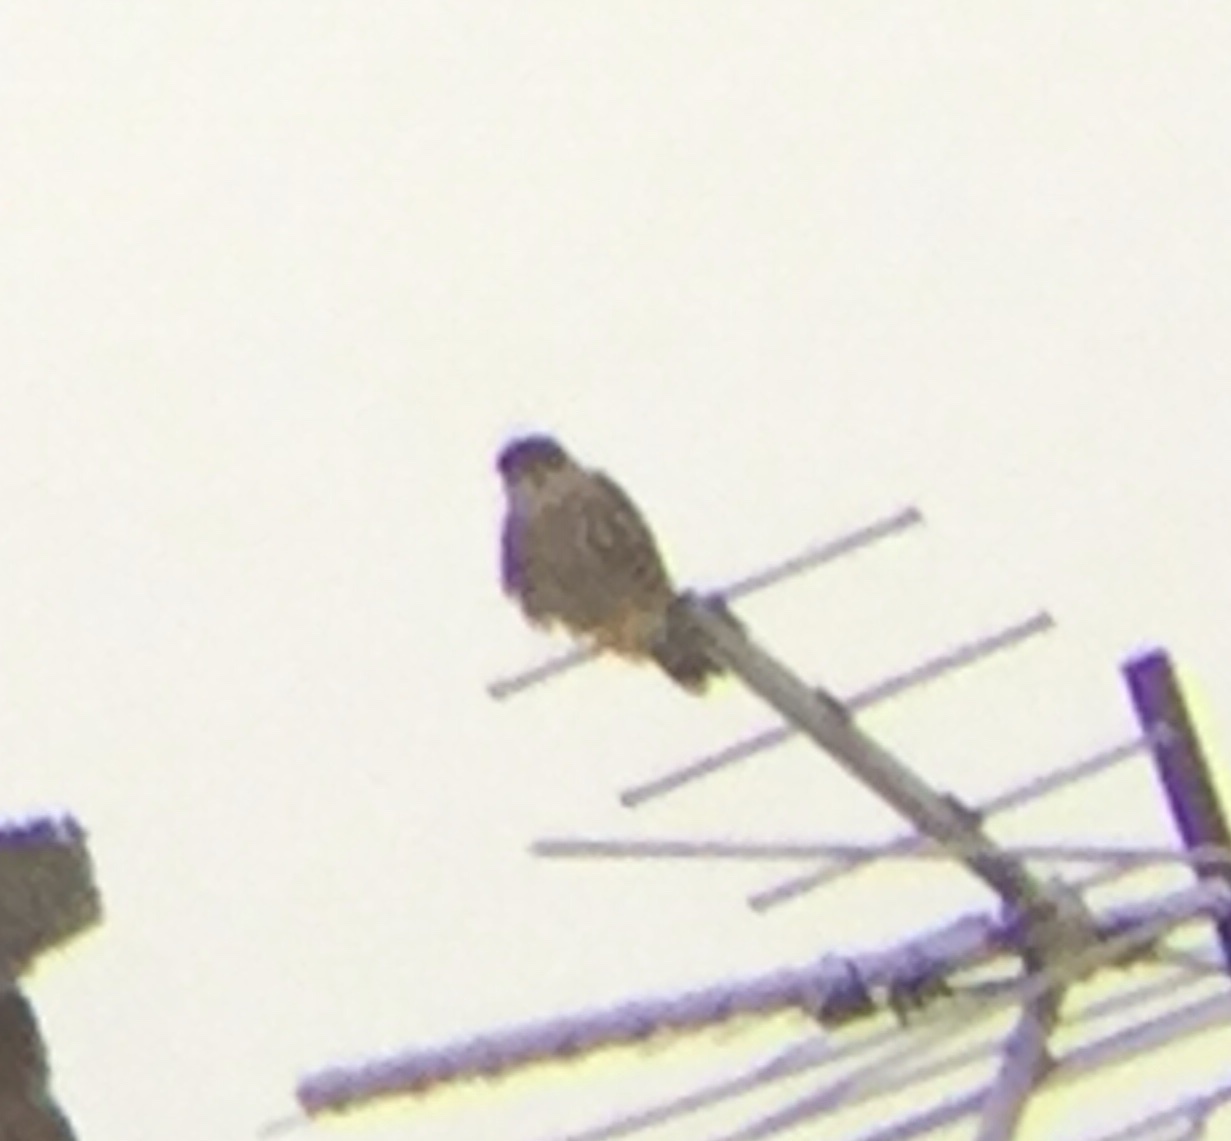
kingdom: Animalia
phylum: Chordata
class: Aves
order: Falconiformes
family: Falconidae
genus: Falco
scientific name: Falco sparverius
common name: American kestrel
